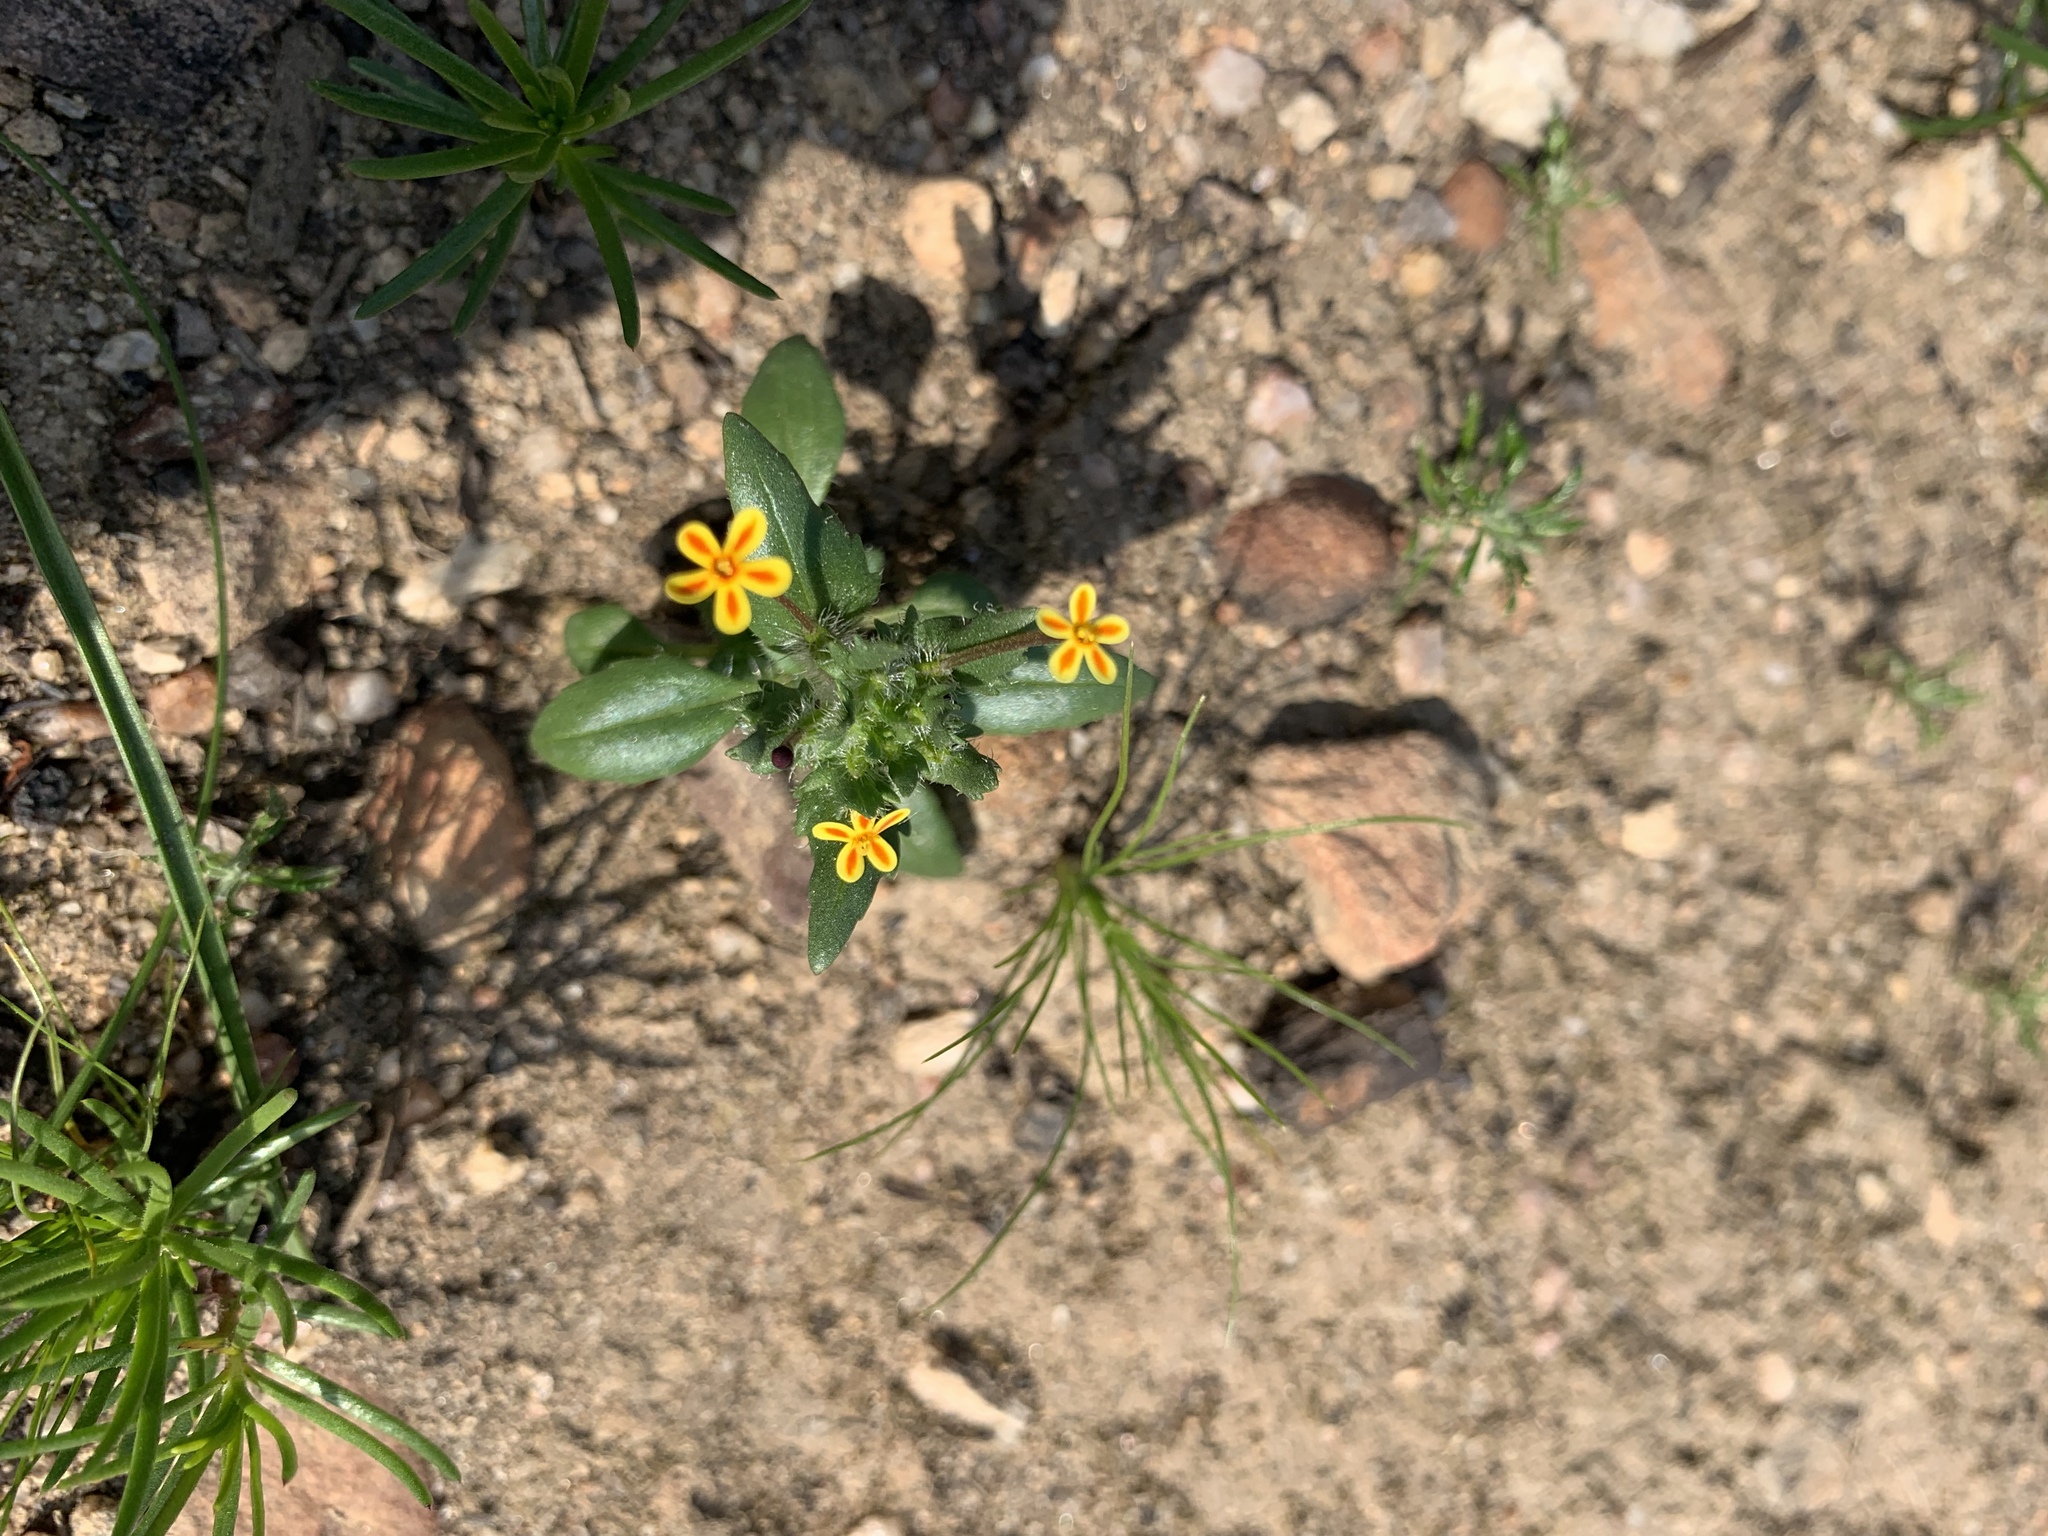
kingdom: Plantae
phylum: Tracheophyta
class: Magnoliopsida
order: Lamiales
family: Scrophulariaceae
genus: Zaluzianskya
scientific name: Zaluzianskya divaricata
